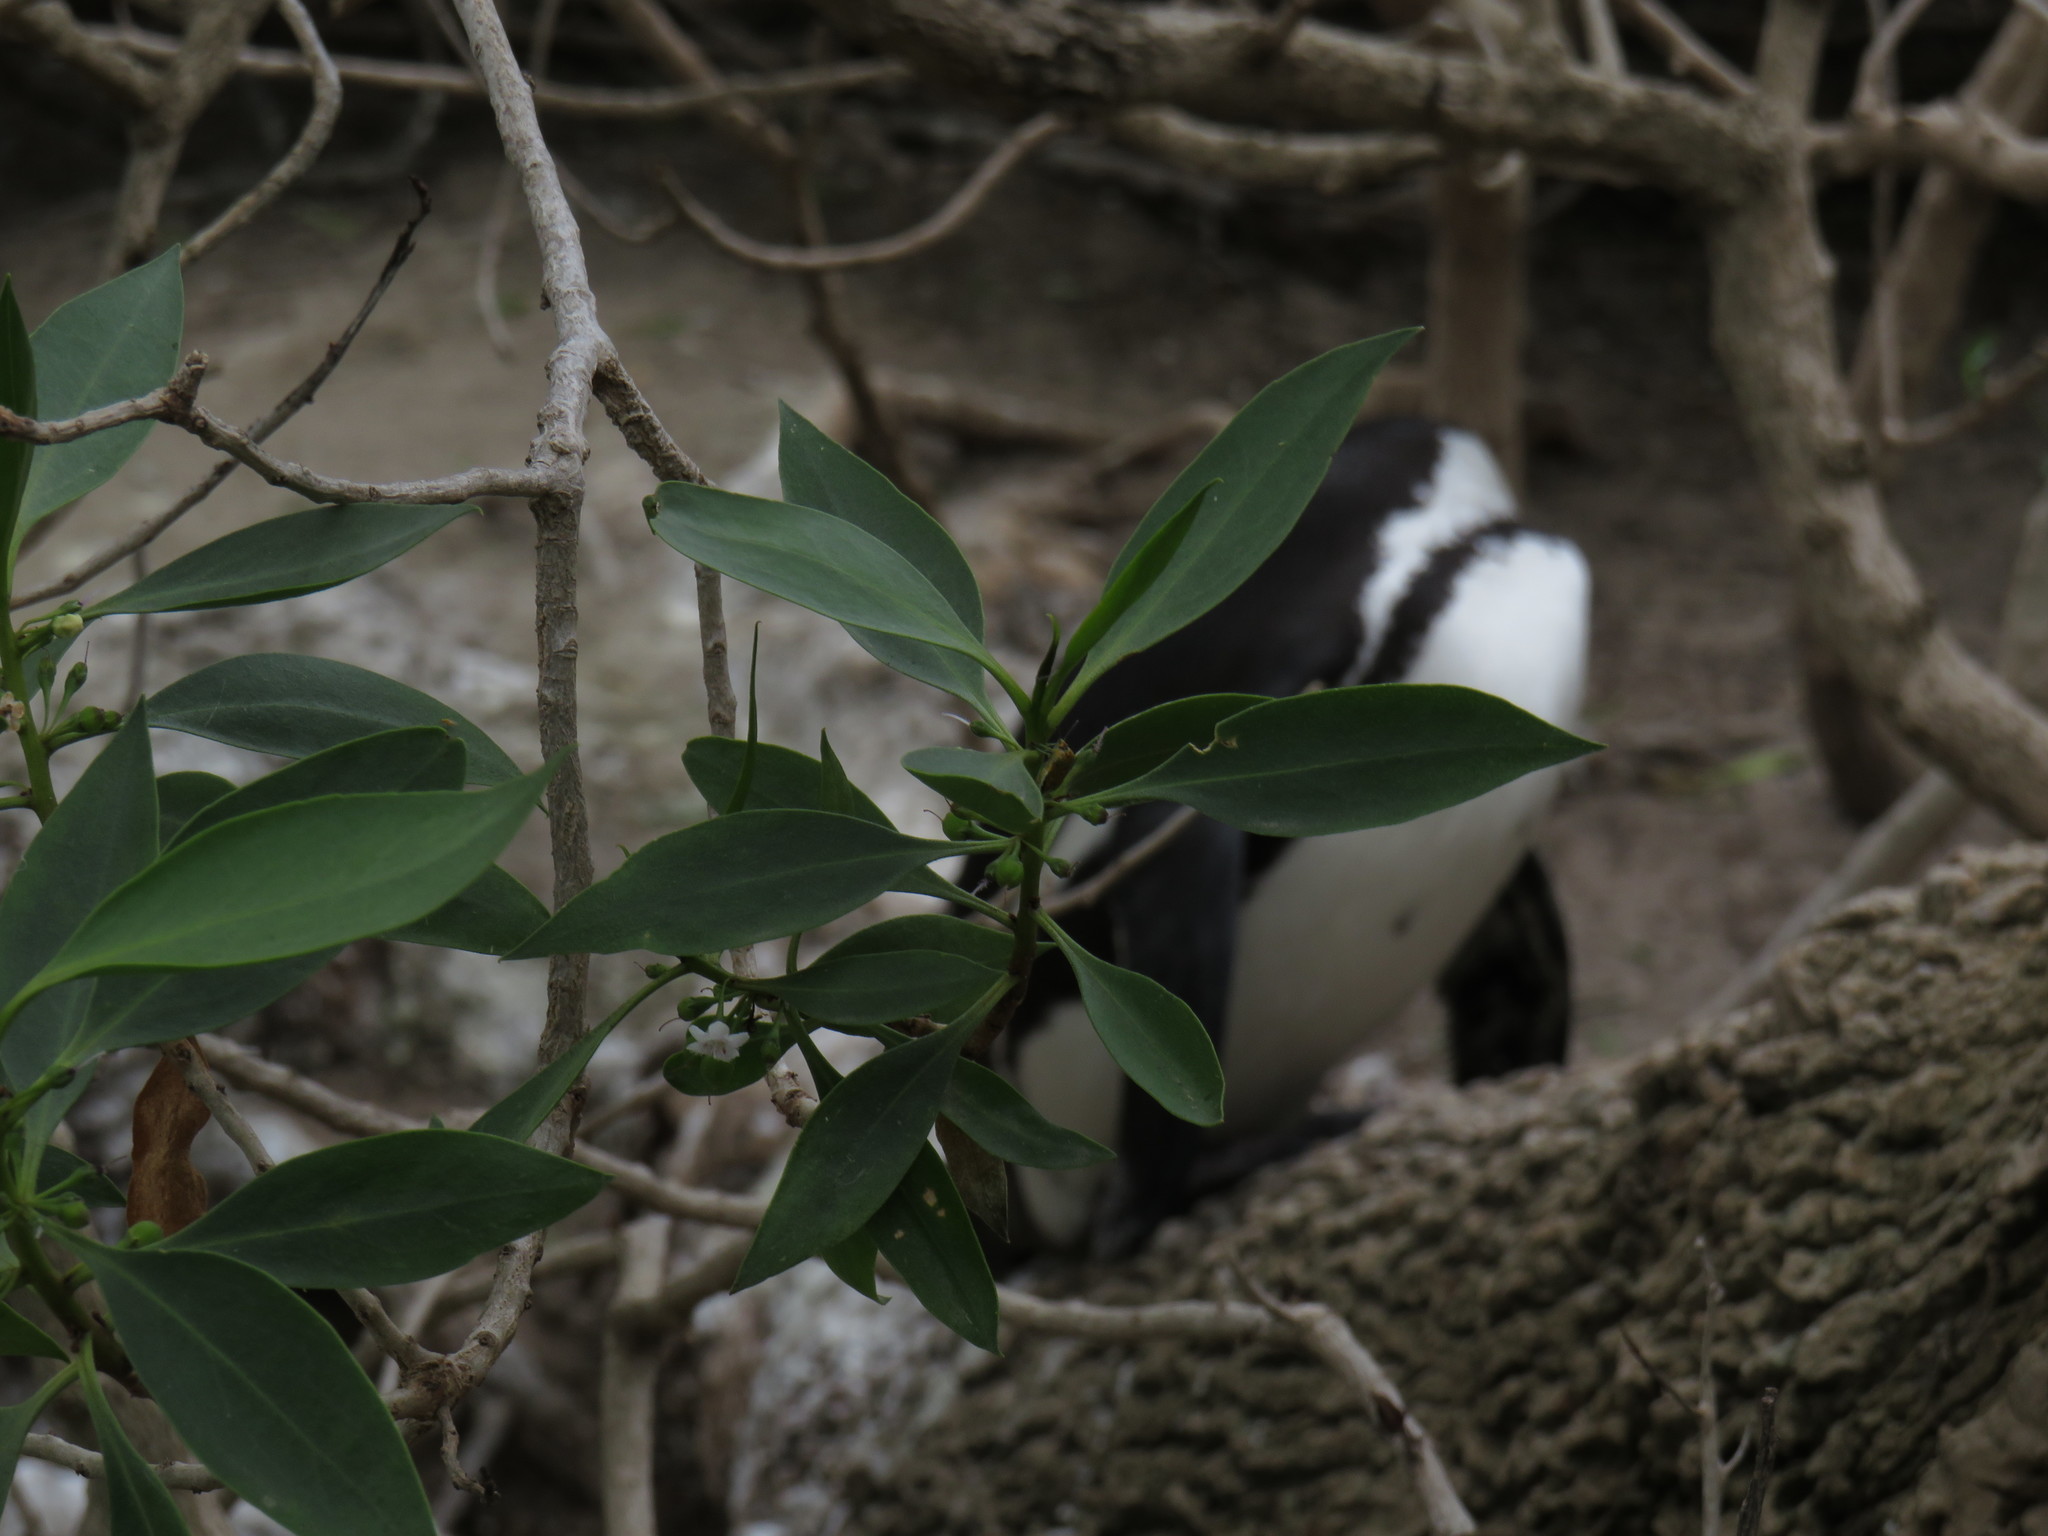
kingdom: Plantae
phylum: Tracheophyta
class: Magnoliopsida
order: Lamiales
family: Scrophulariaceae
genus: Myoporum
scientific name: Myoporum insulare
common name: Common boobialla
